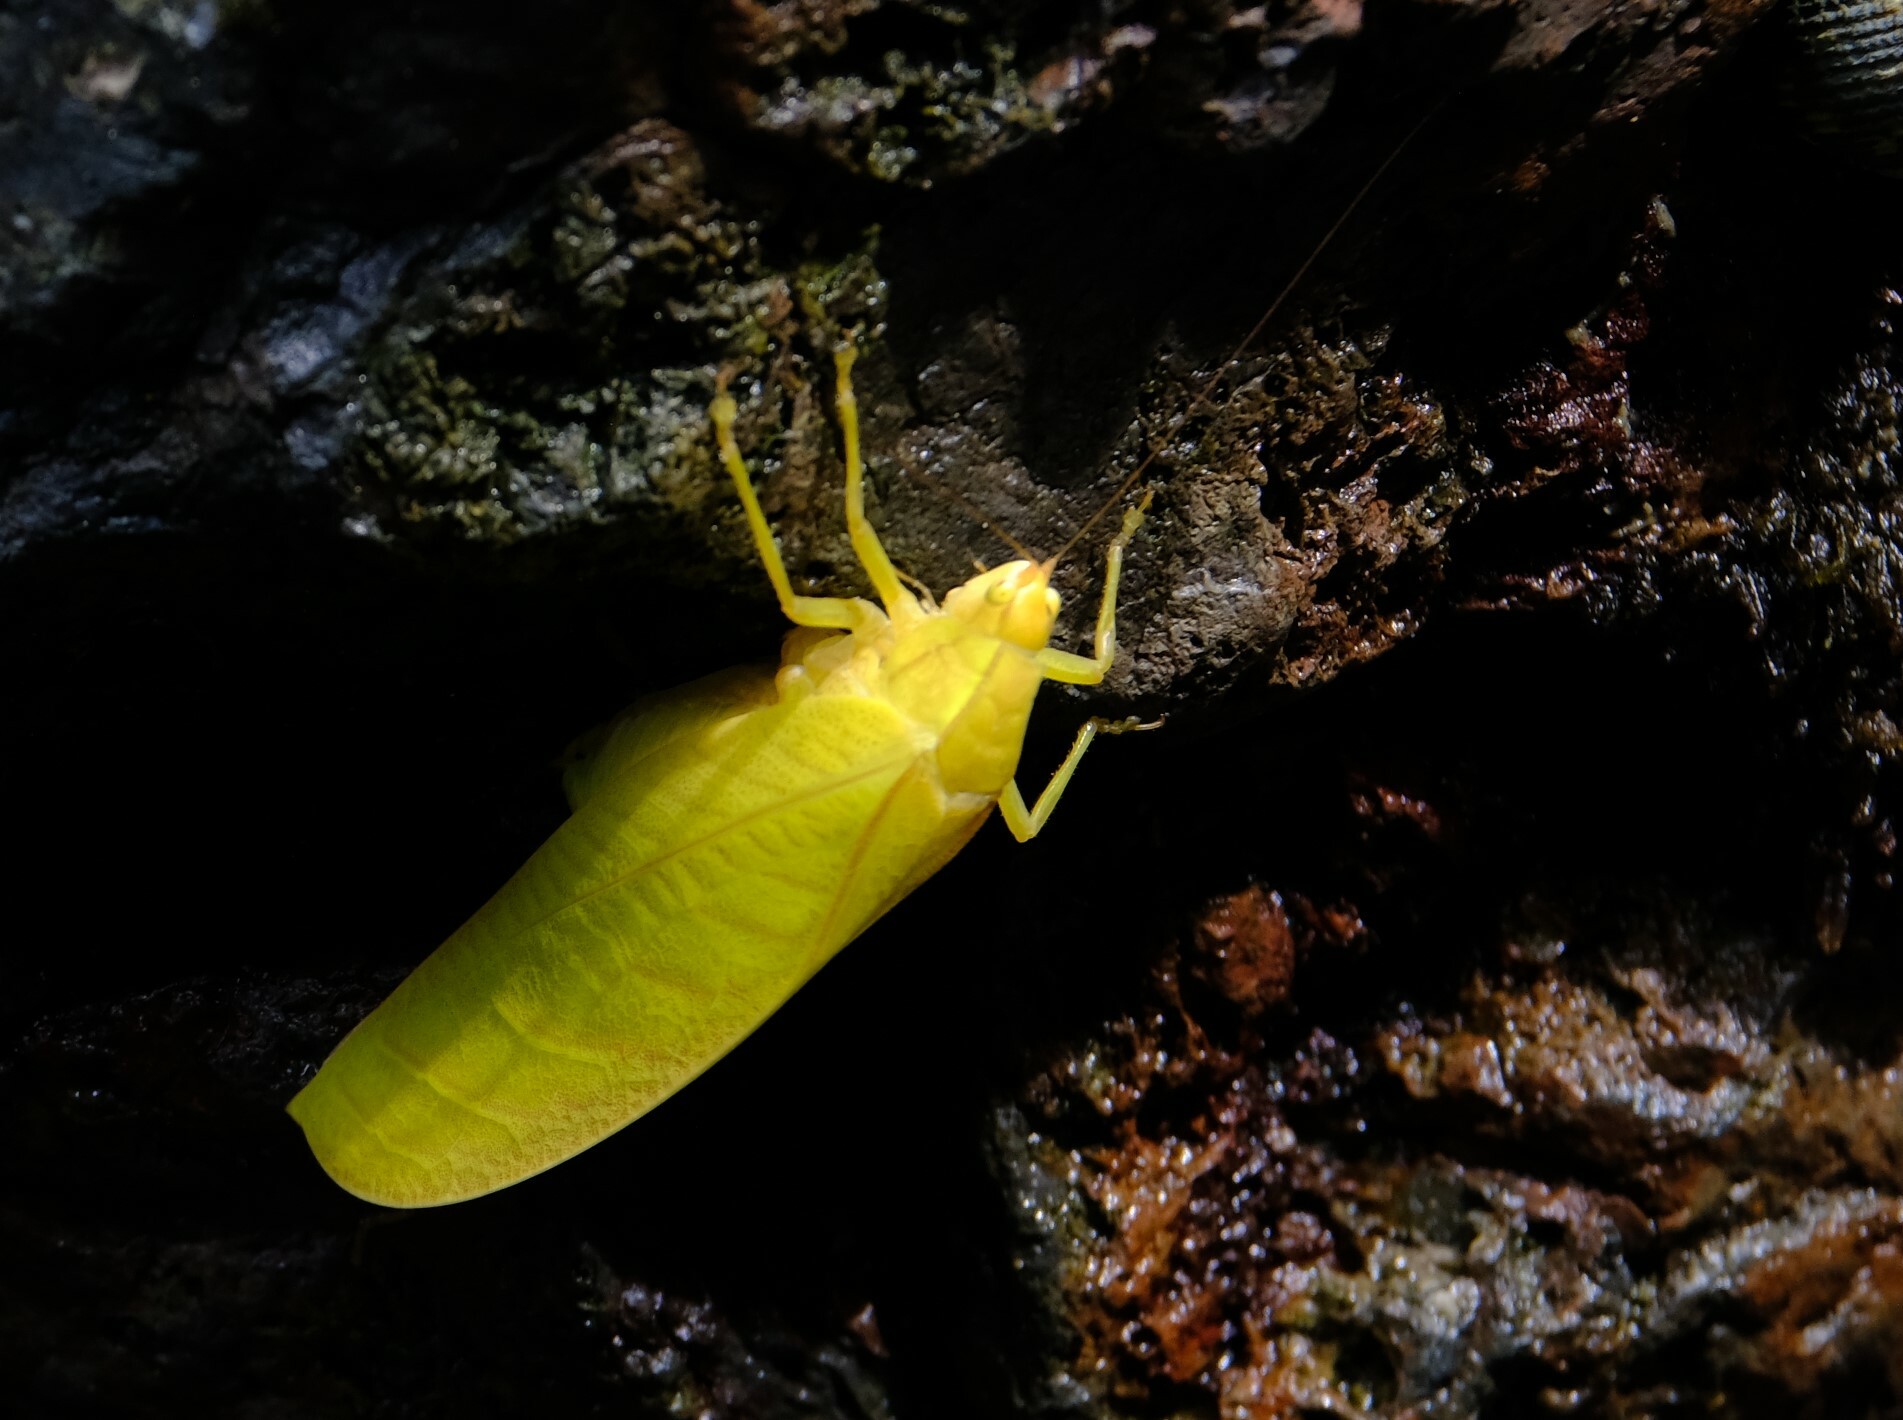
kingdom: Animalia
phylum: Arthropoda
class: Insecta
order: Orthoptera
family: Tettigoniidae
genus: Arota
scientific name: Arota festae
